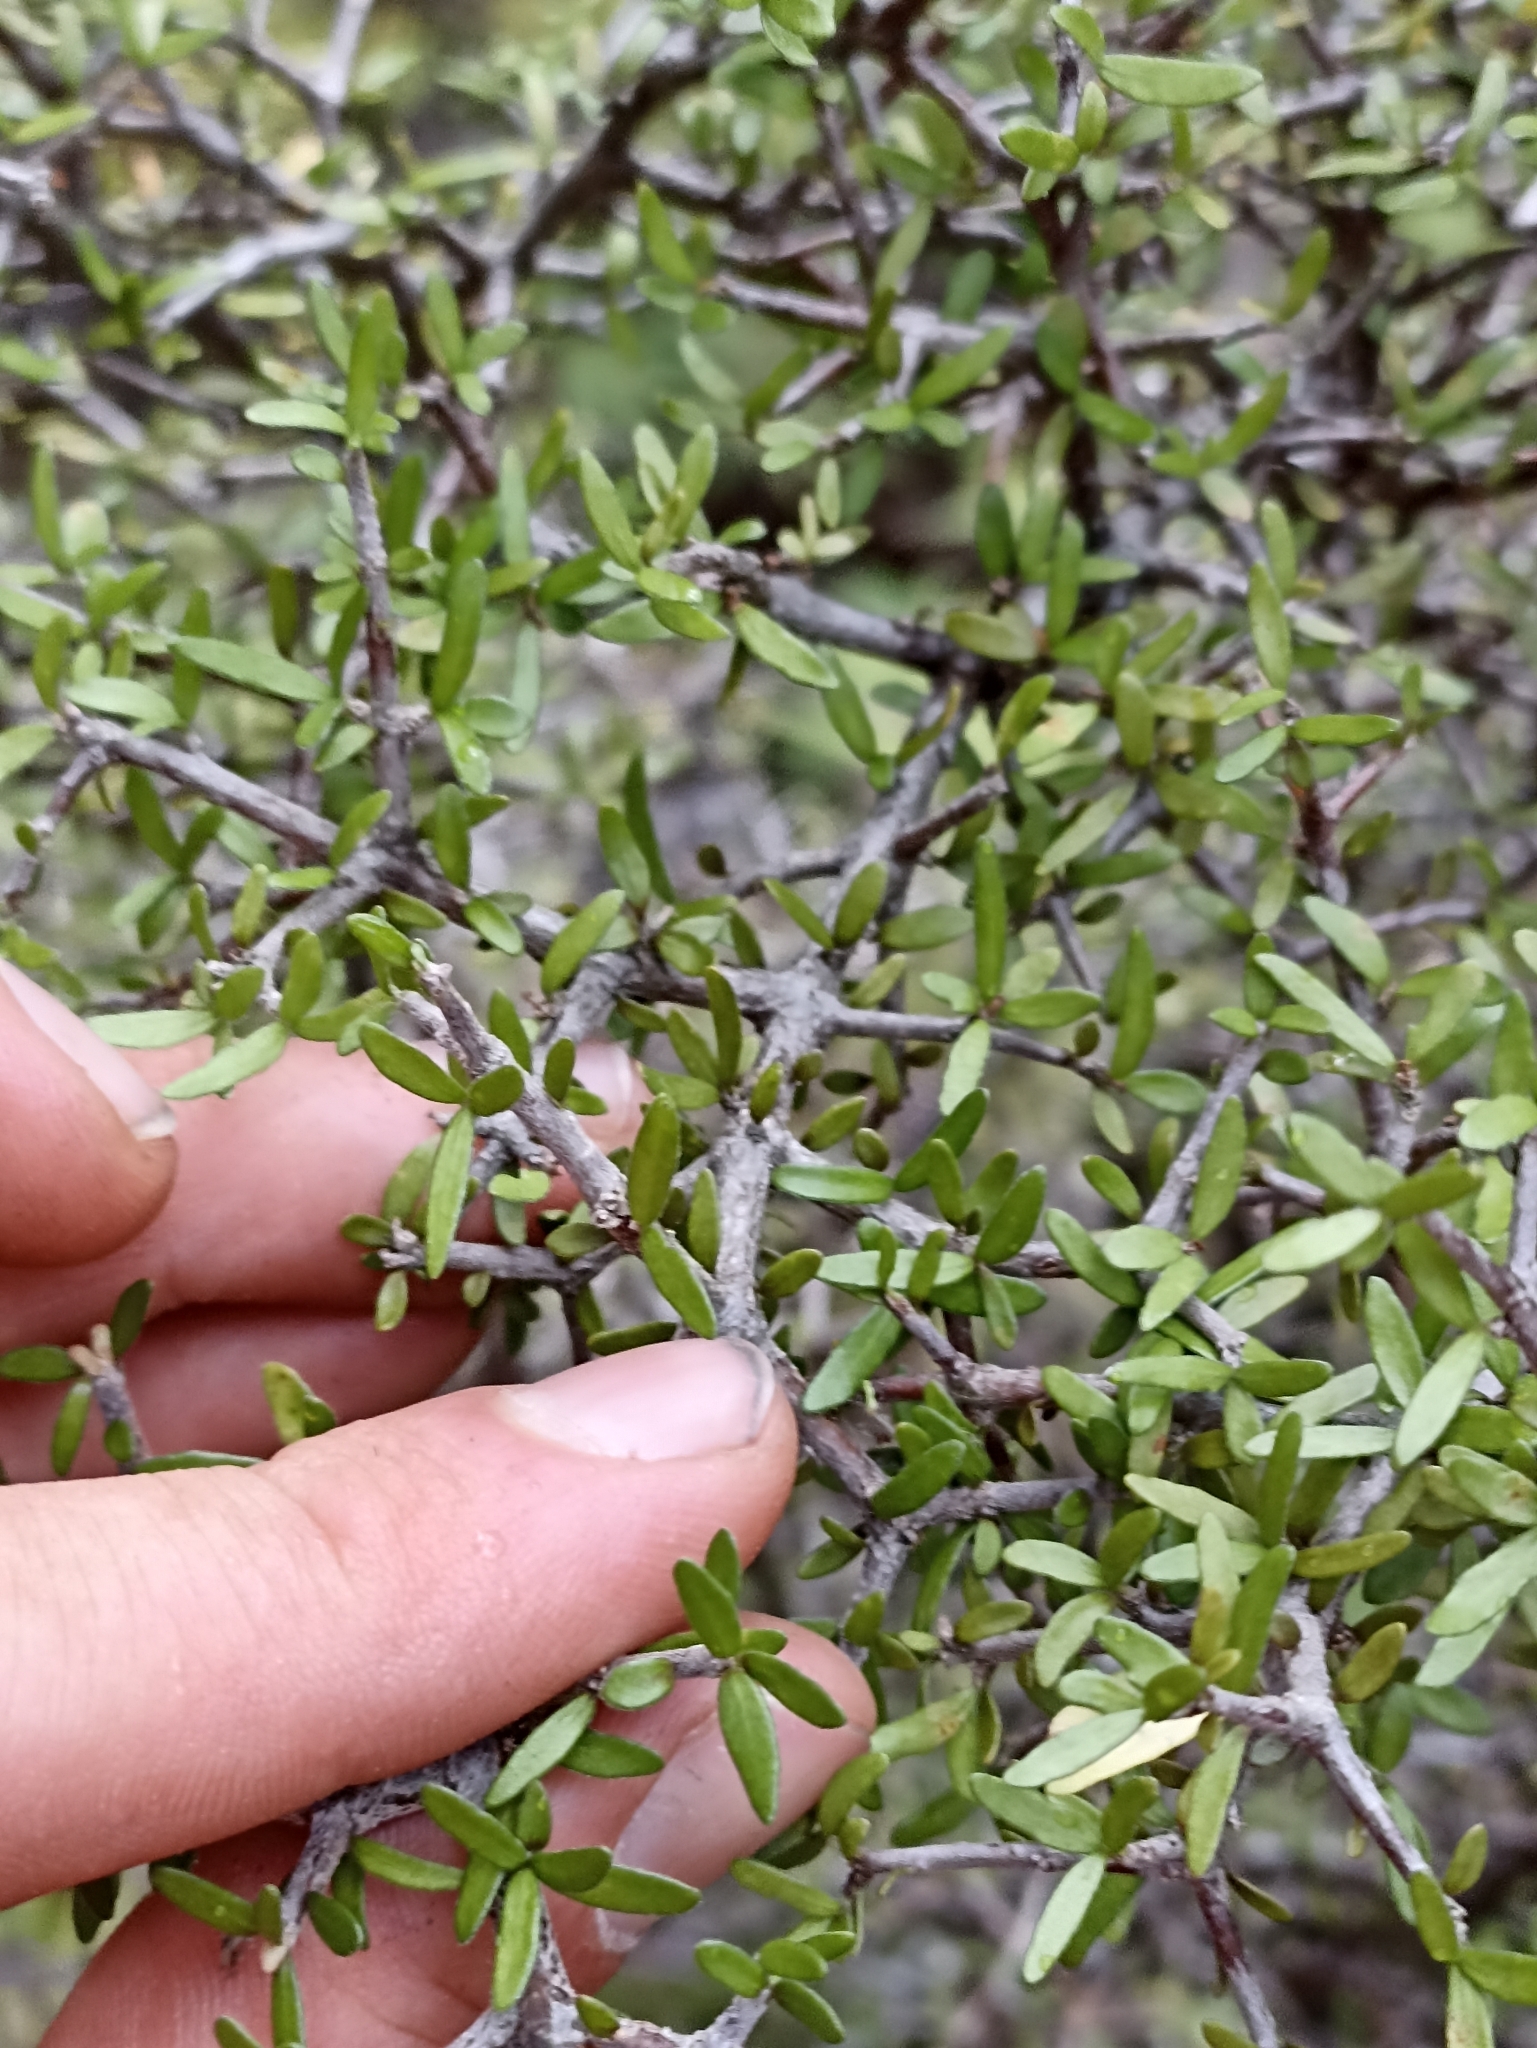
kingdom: Plantae
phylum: Tracheophyta
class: Magnoliopsida
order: Apiales
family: Pittosporaceae
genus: Pittosporum
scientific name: Pittosporum rigidum
